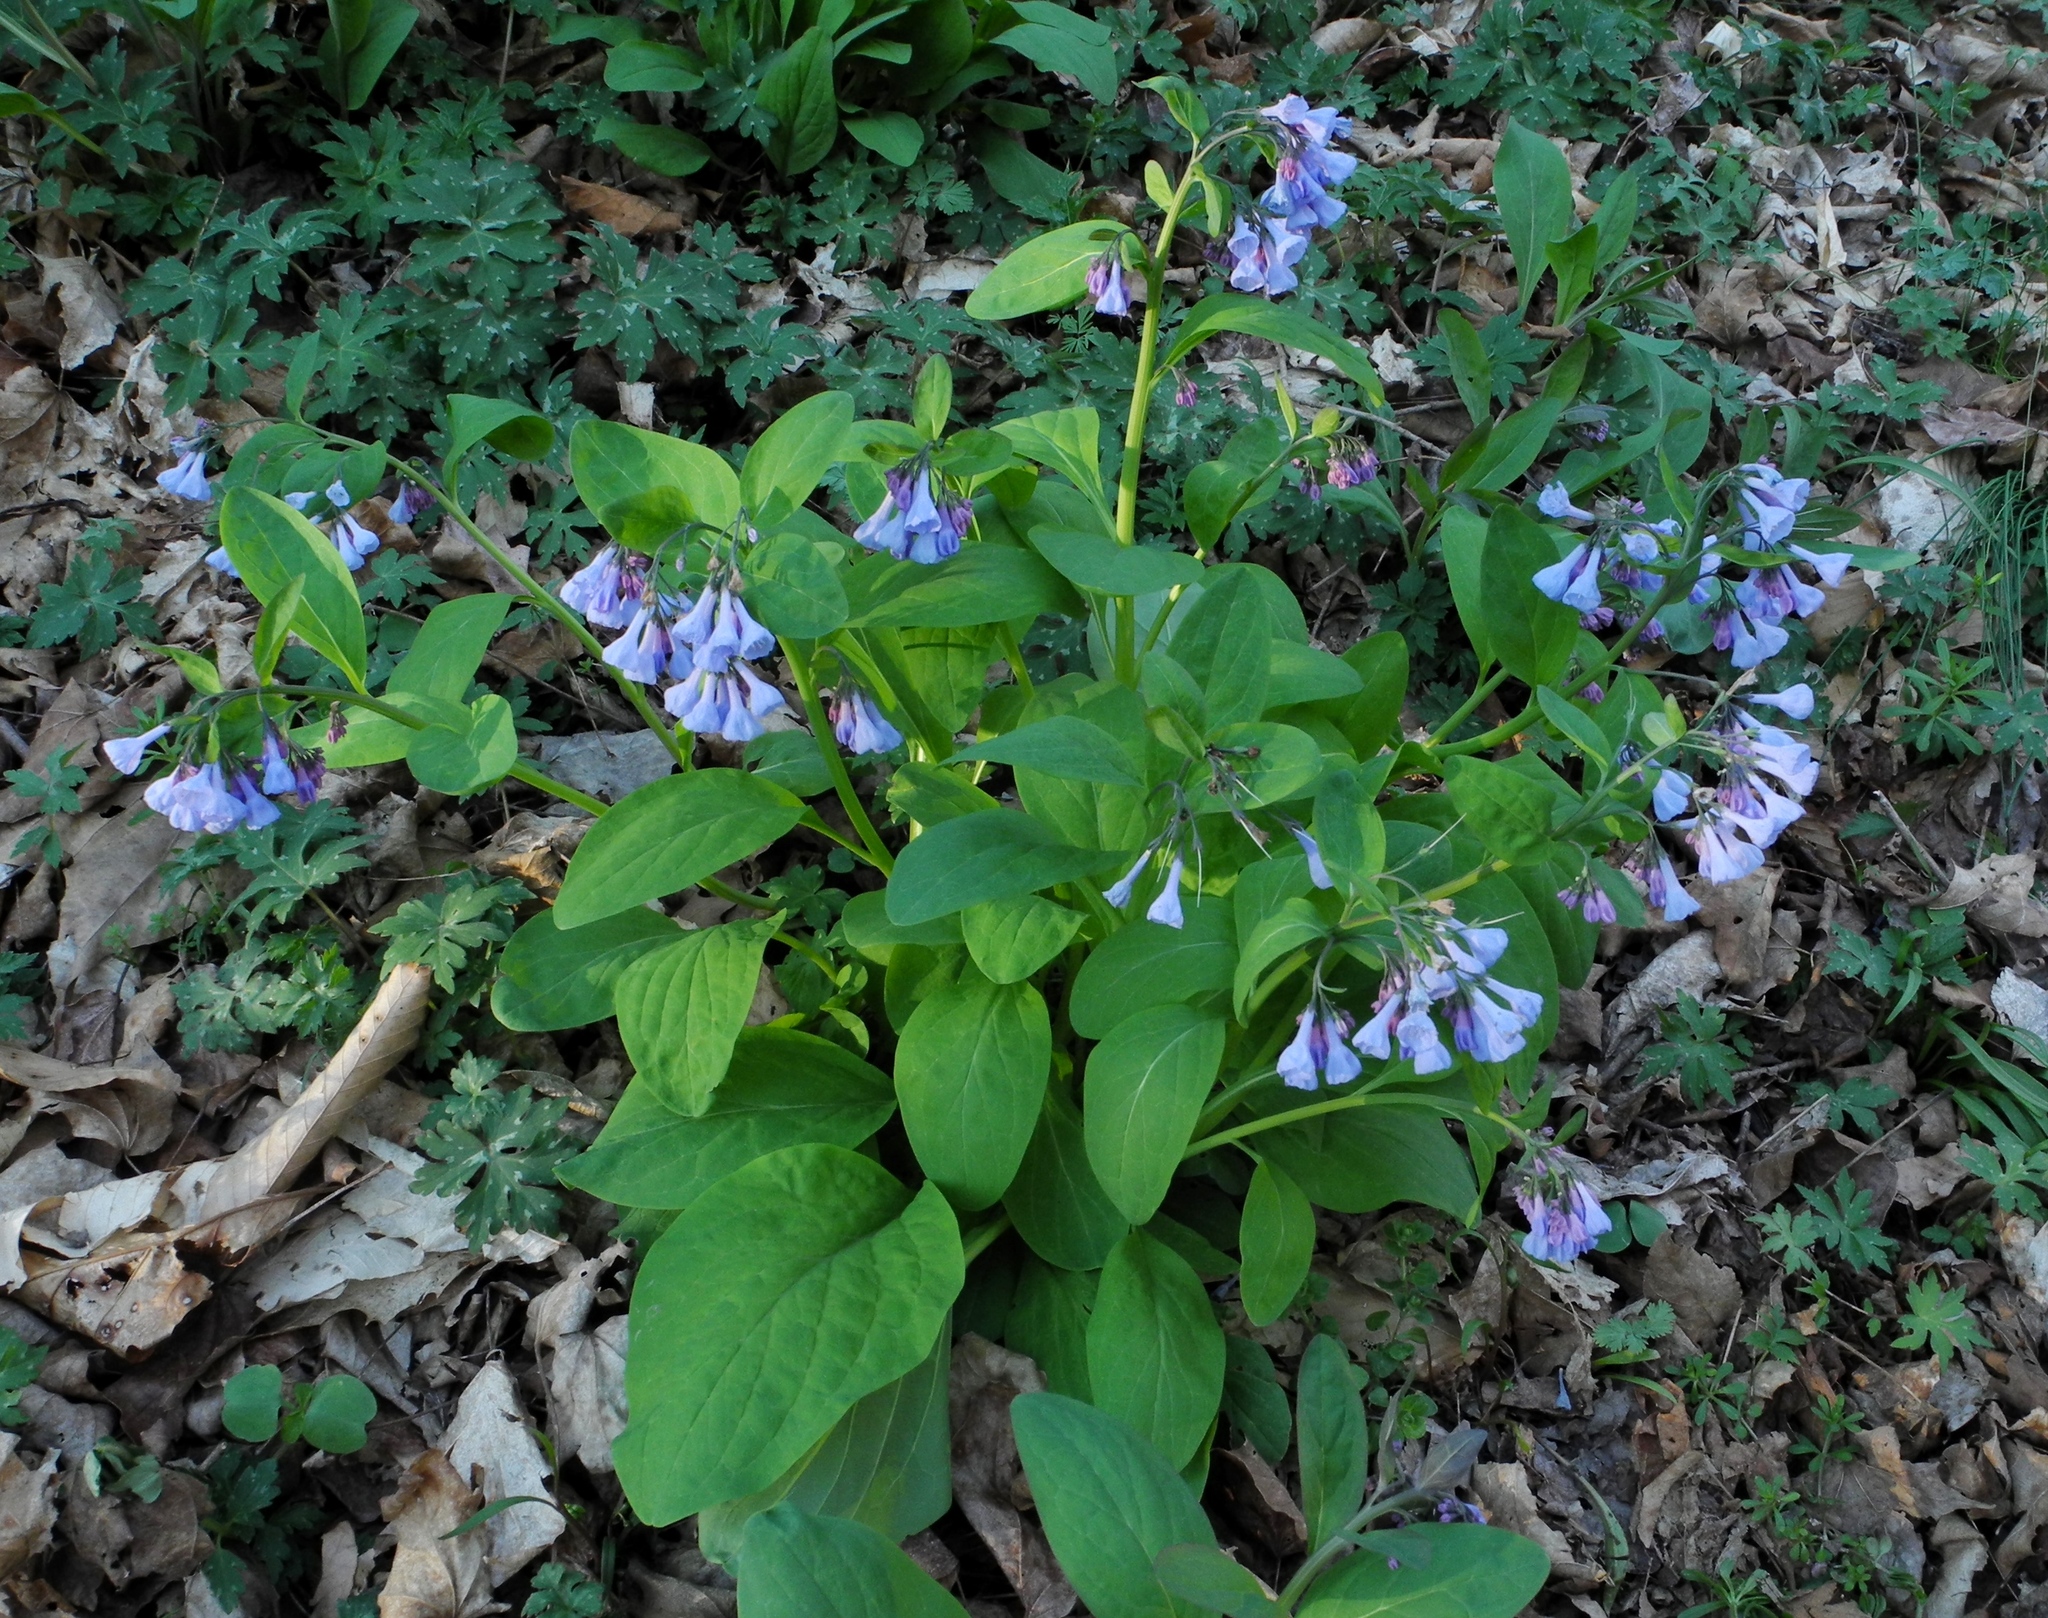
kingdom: Plantae
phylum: Tracheophyta
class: Magnoliopsida
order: Boraginales
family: Boraginaceae
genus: Mertensia
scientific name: Mertensia virginica
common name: Virginia bluebells
